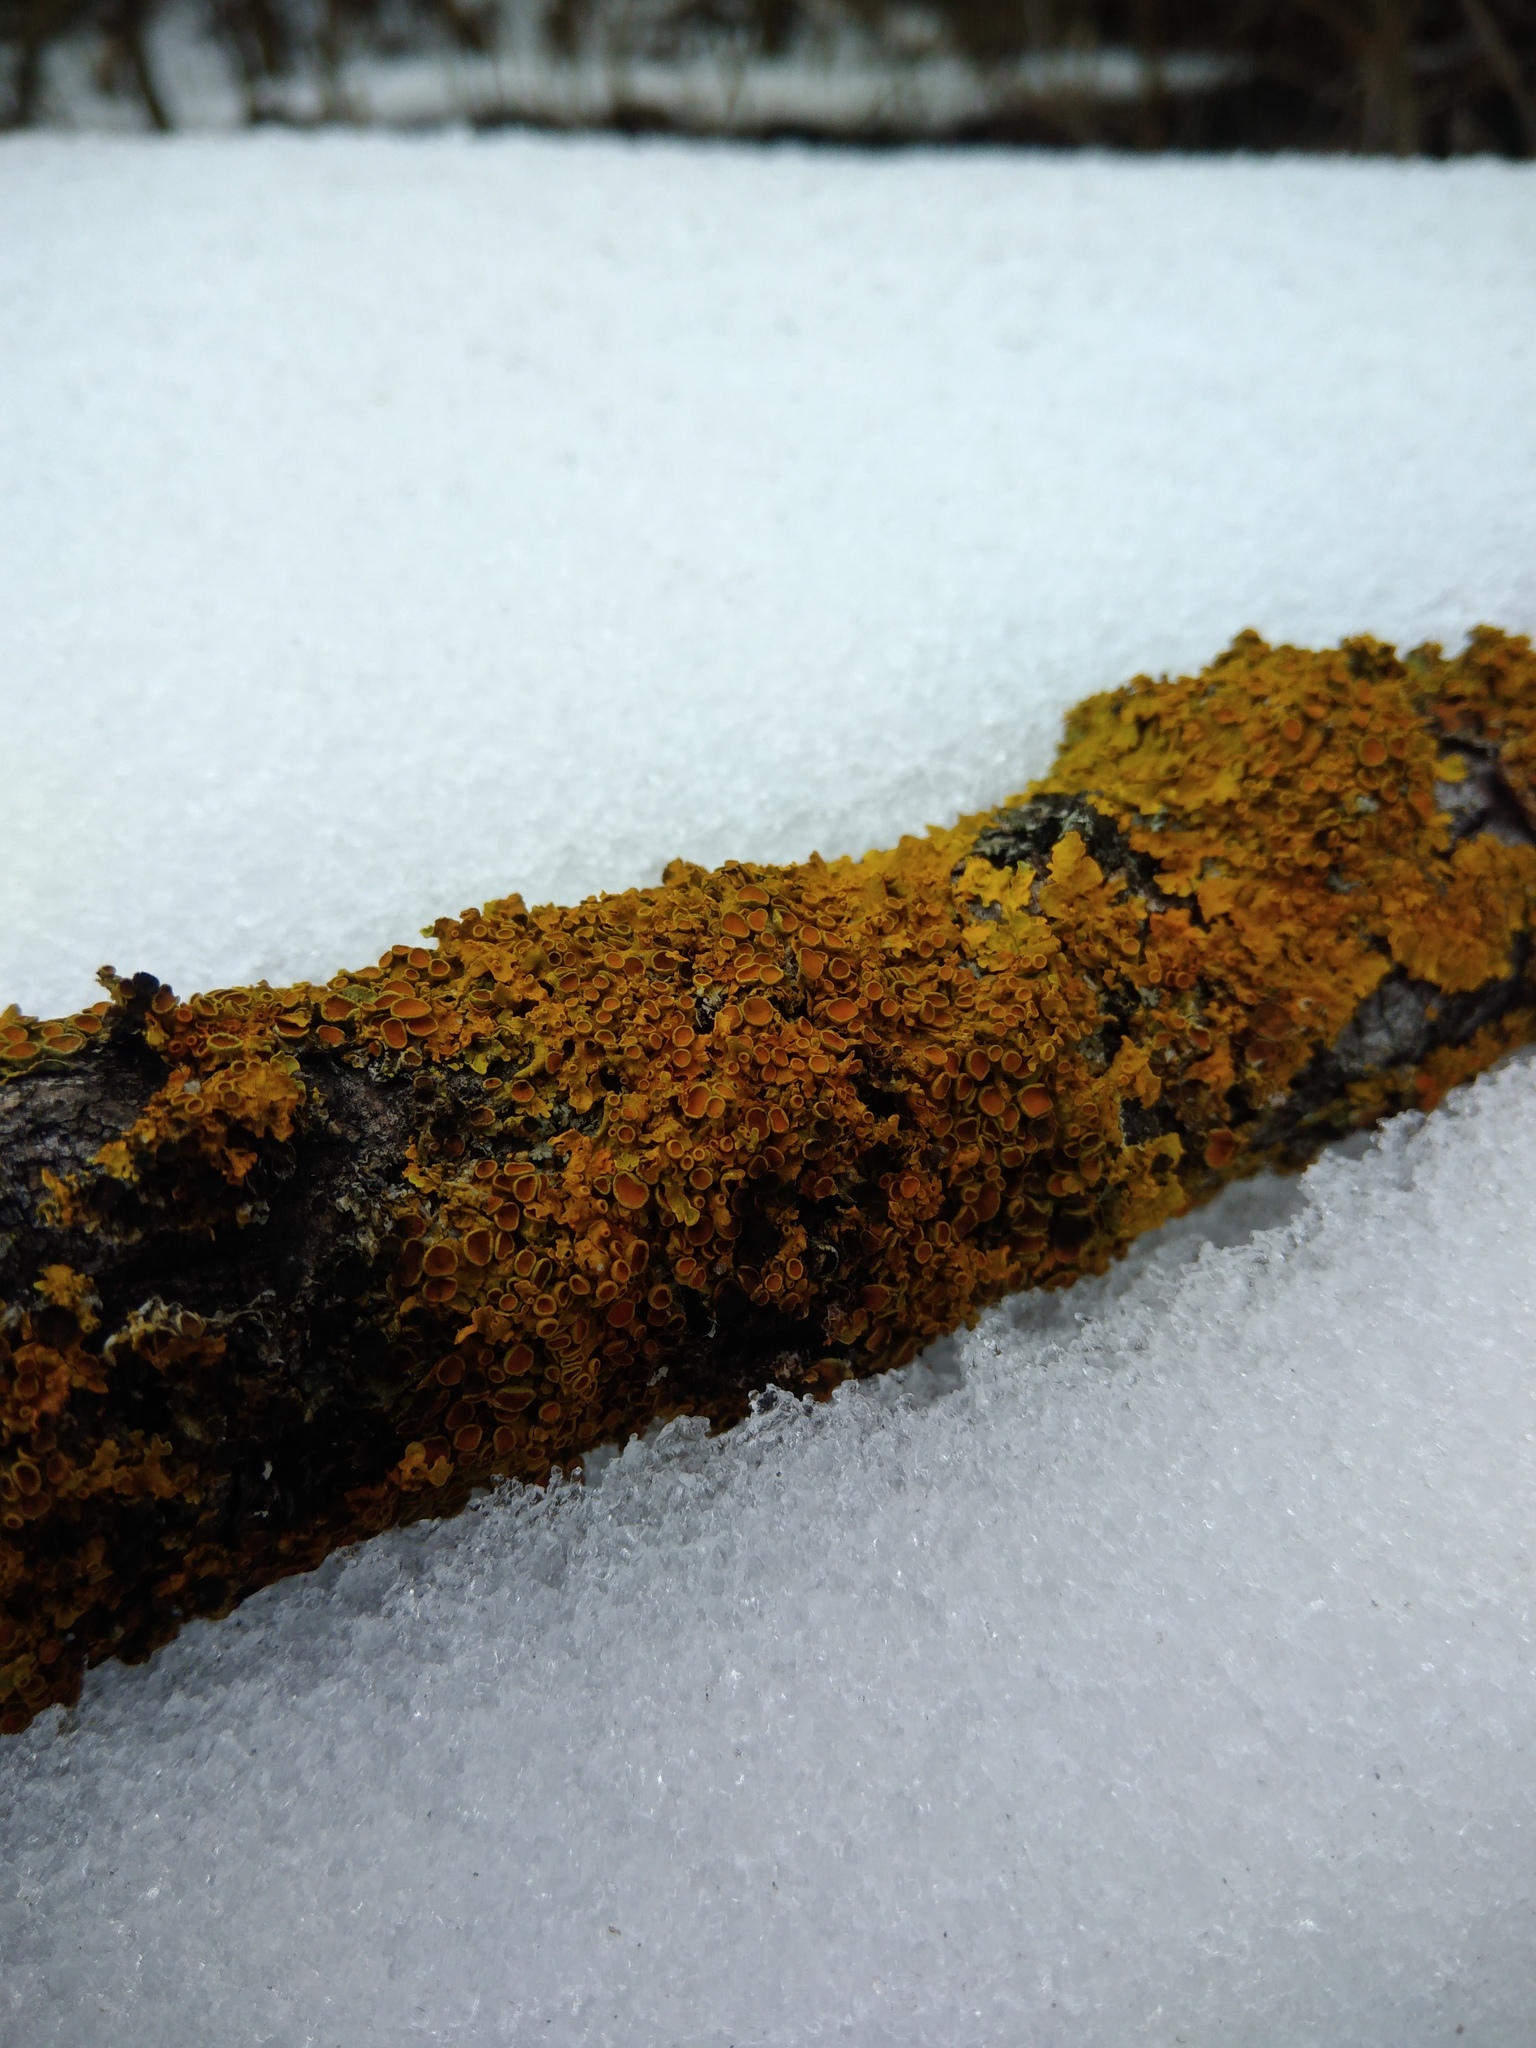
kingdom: Fungi
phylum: Ascomycota
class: Lecanoromycetes
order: Teloschistales
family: Teloschistaceae
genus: Xanthoria
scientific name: Xanthoria parietina
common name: Common orange lichen
